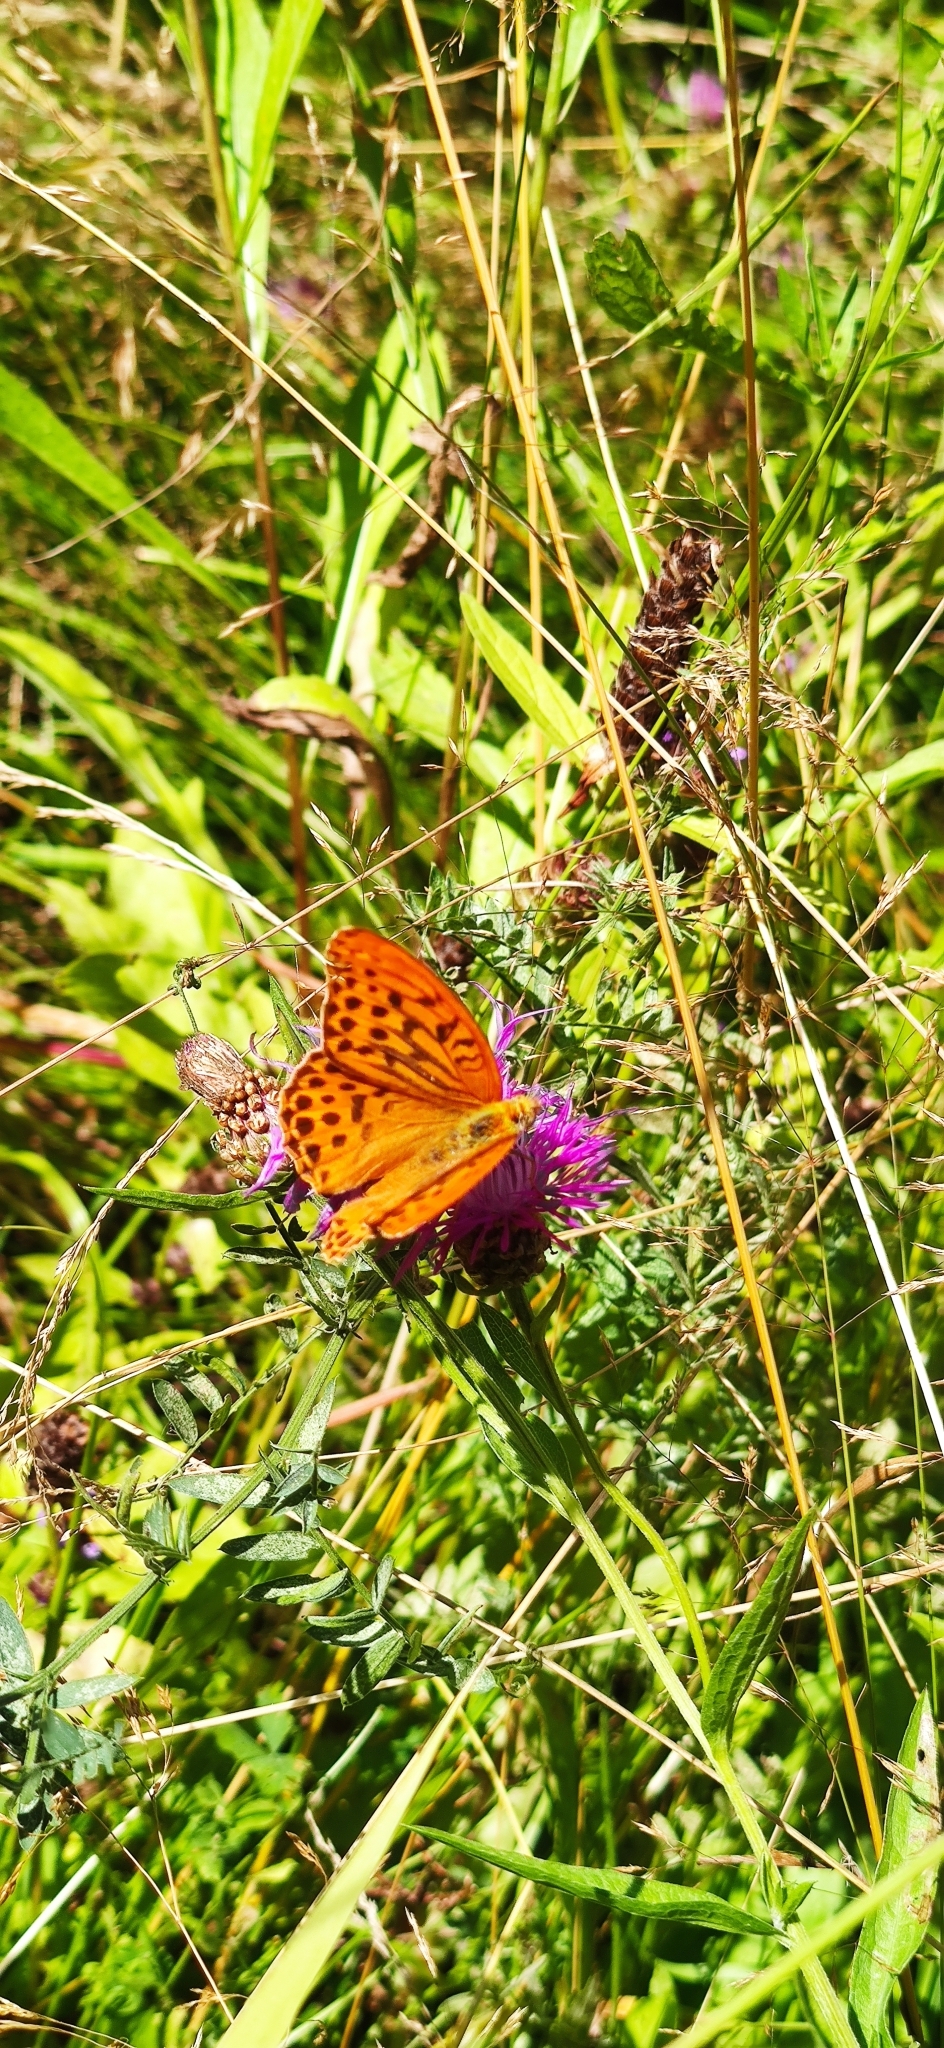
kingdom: Animalia
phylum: Arthropoda
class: Insecta
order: Lepidoptera
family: Nymphalidae
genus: Argynnis
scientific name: Argynnis paphia
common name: Silver-washed fritillary
